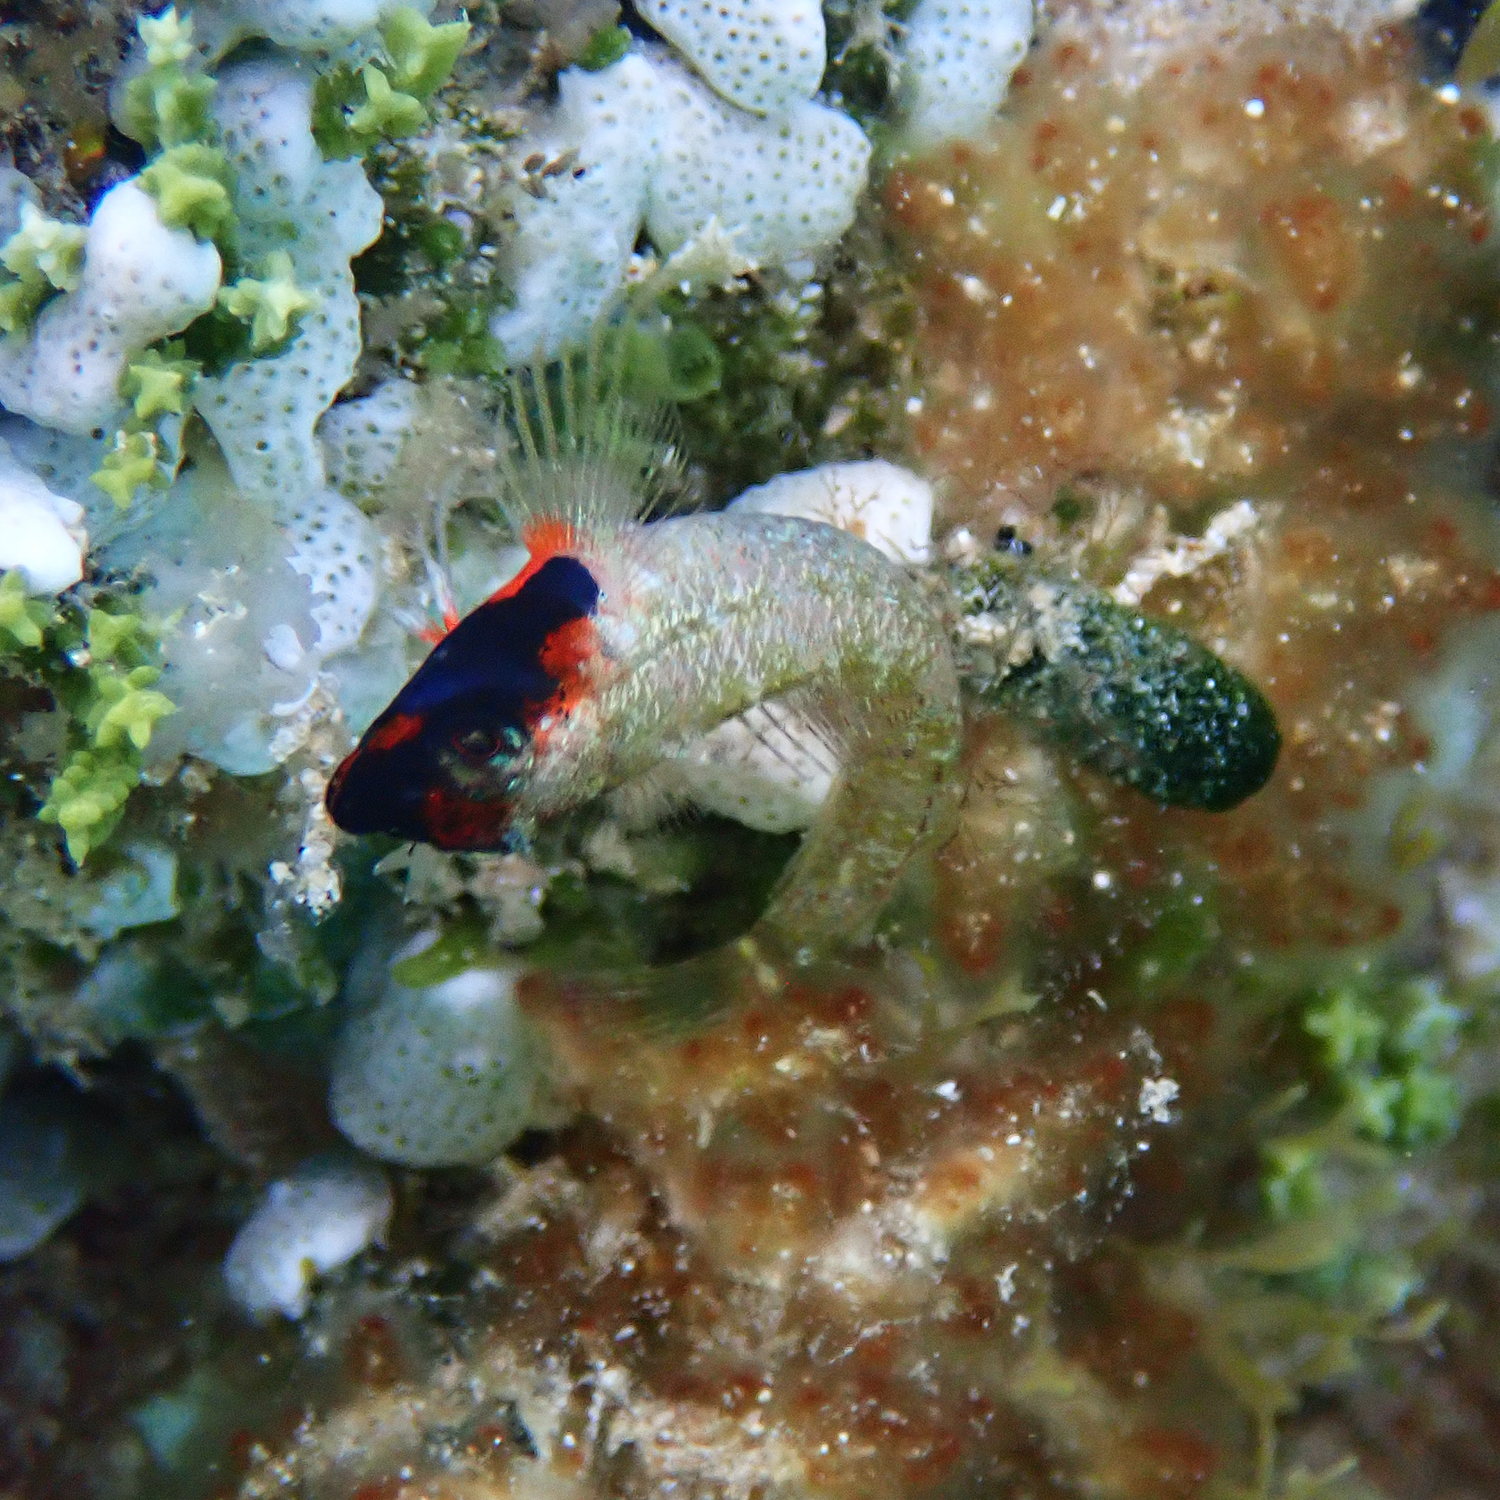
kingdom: Animalia
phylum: Chordata
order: Perciformes
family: Tripterygiidae
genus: Enneapterygius
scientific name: Enneapterygius rufopileus
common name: Lord howe black-head triplefin
